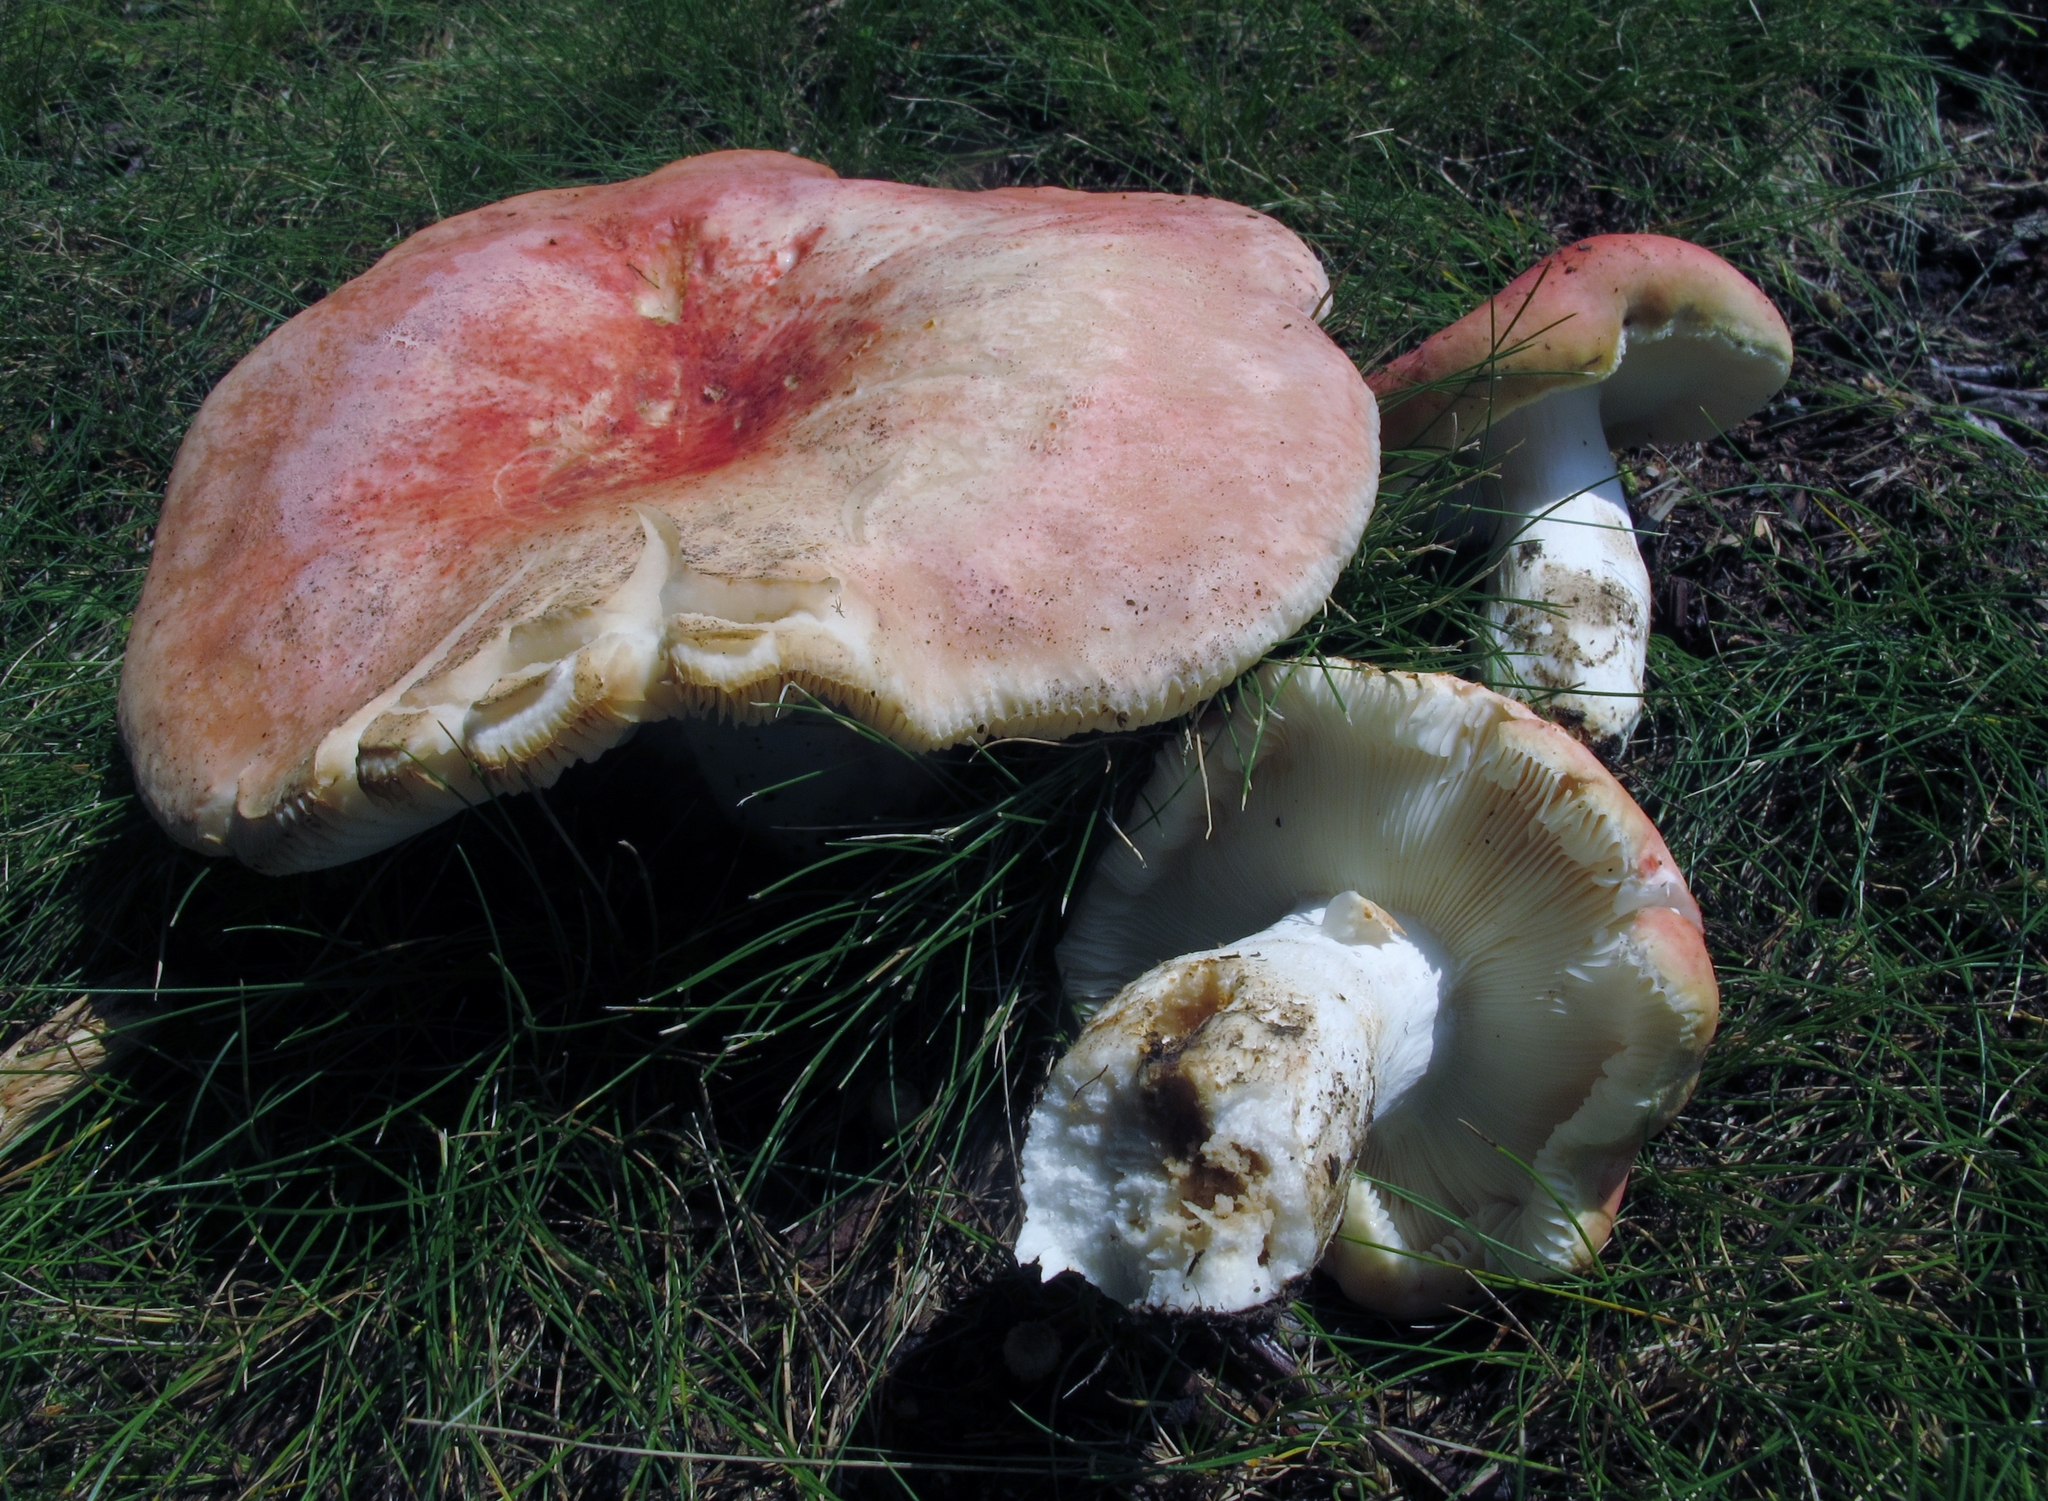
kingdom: Fungi
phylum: Basidiomycota
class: Agaricomycetes
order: Russulales
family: Russulaceae
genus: Russula
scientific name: Russula pulchra
